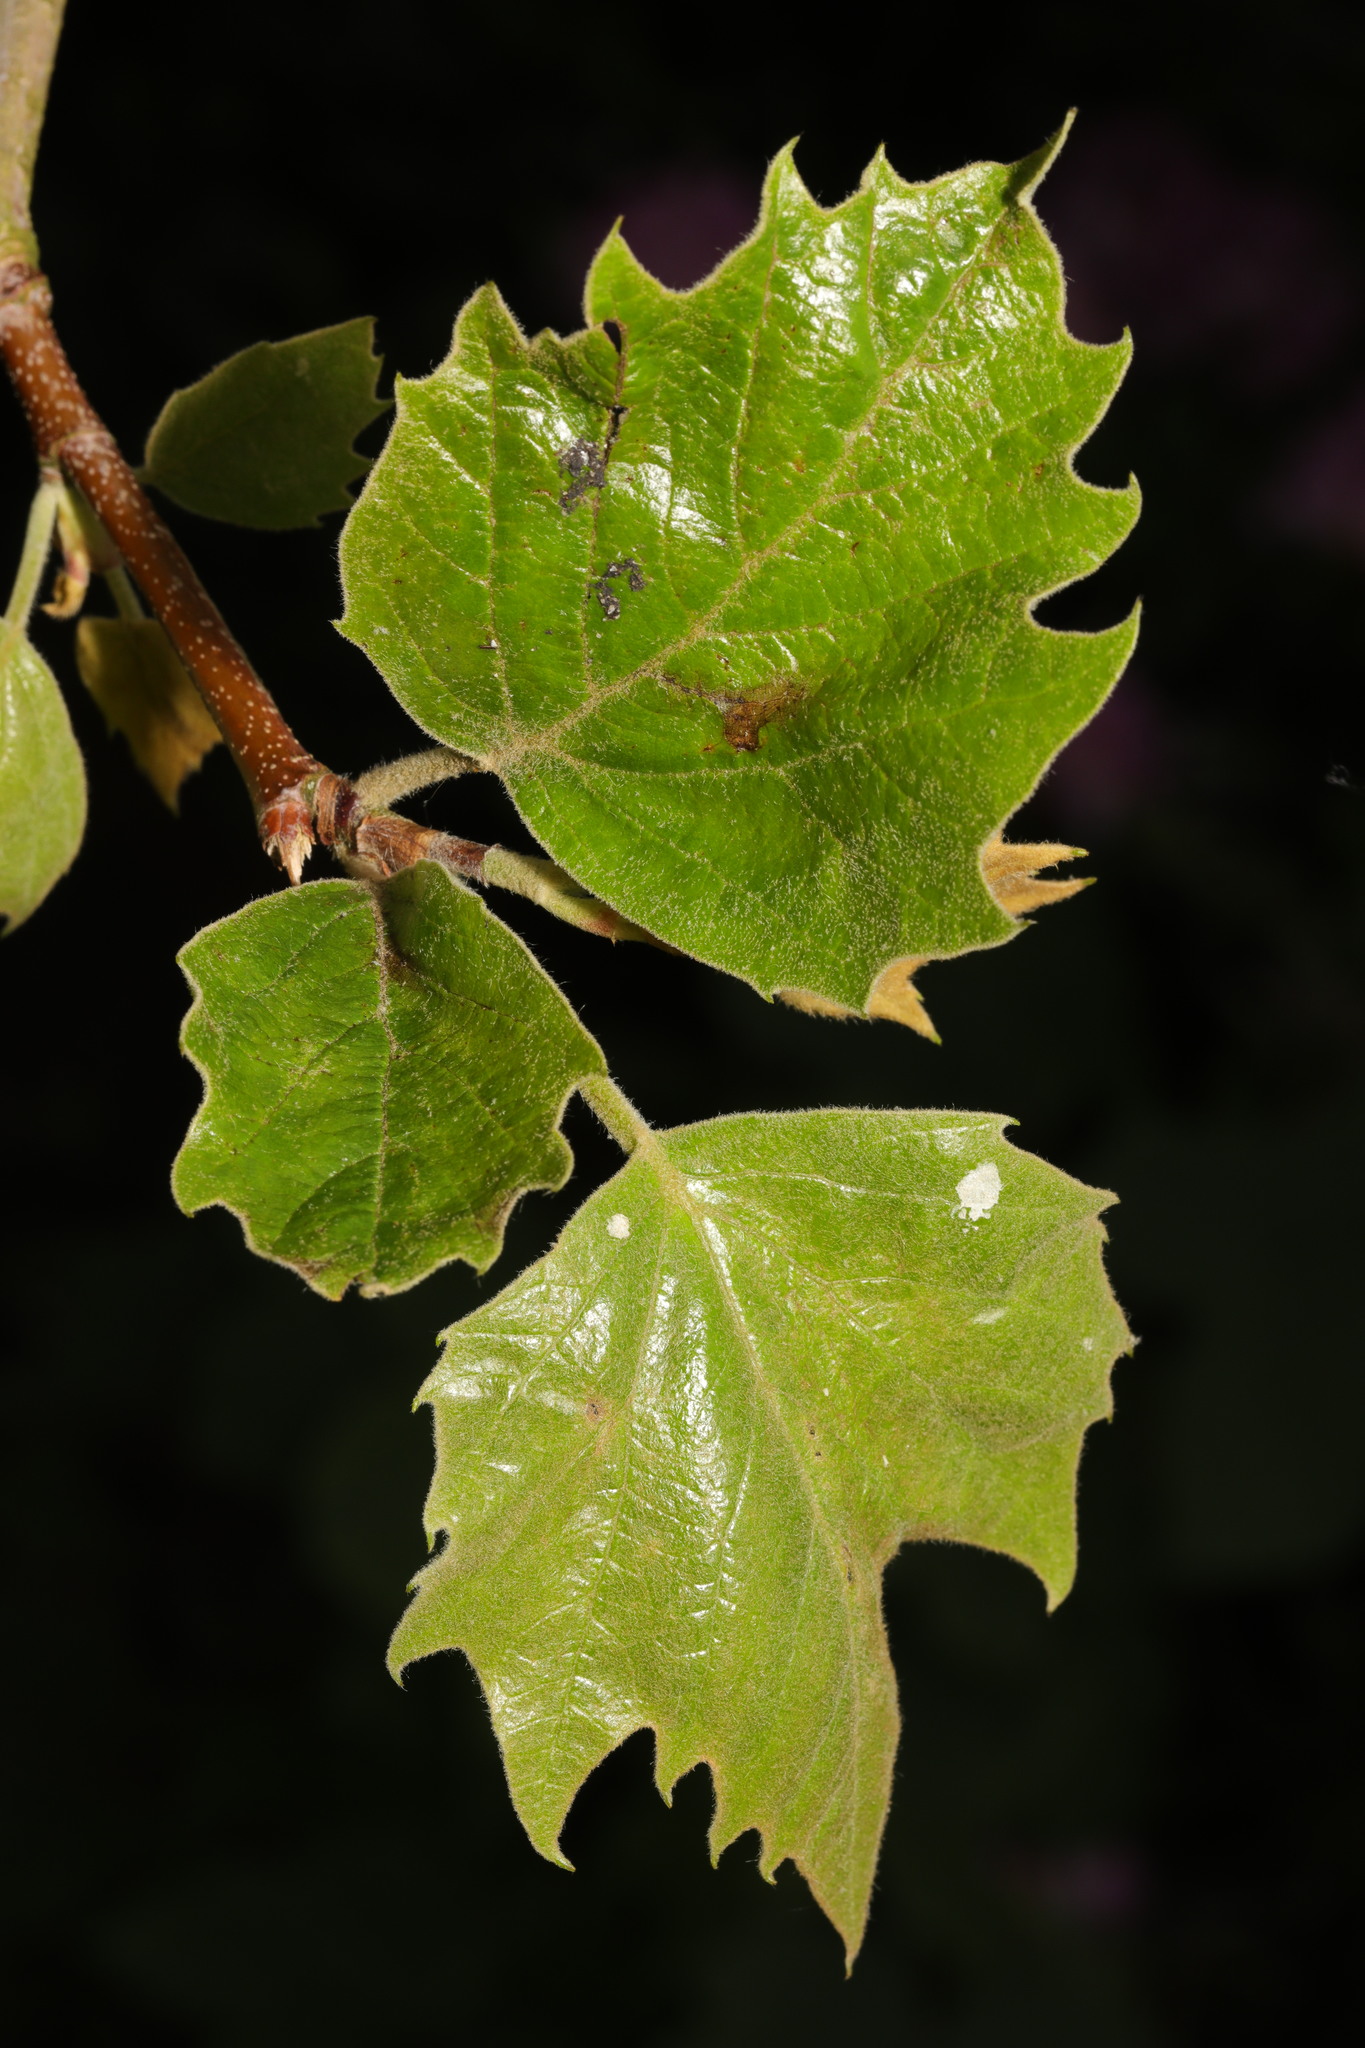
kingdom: Plantae
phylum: Tracheophyta
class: Magnoliopsida
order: Proteales
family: Platanaceae
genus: Platanus
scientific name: Platanus hispanica
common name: London plane
